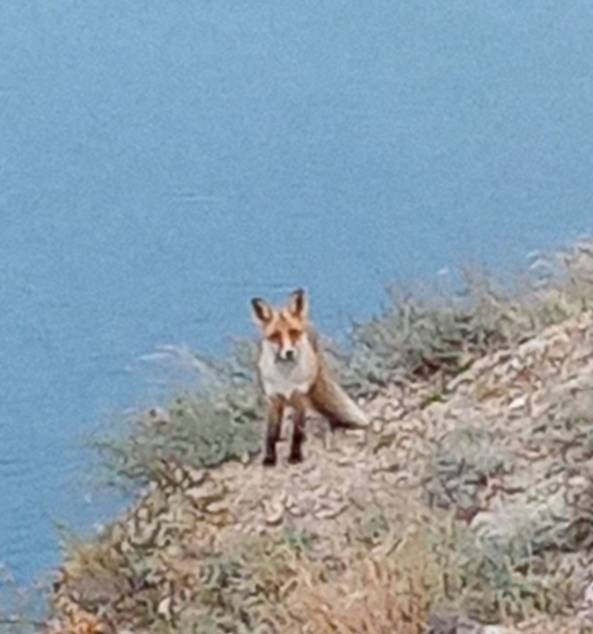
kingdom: Animalia
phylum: Chordata
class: Mammalia
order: Carnivora
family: Canidae
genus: Vulpes
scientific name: Vulpes vulpes
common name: Red fox
